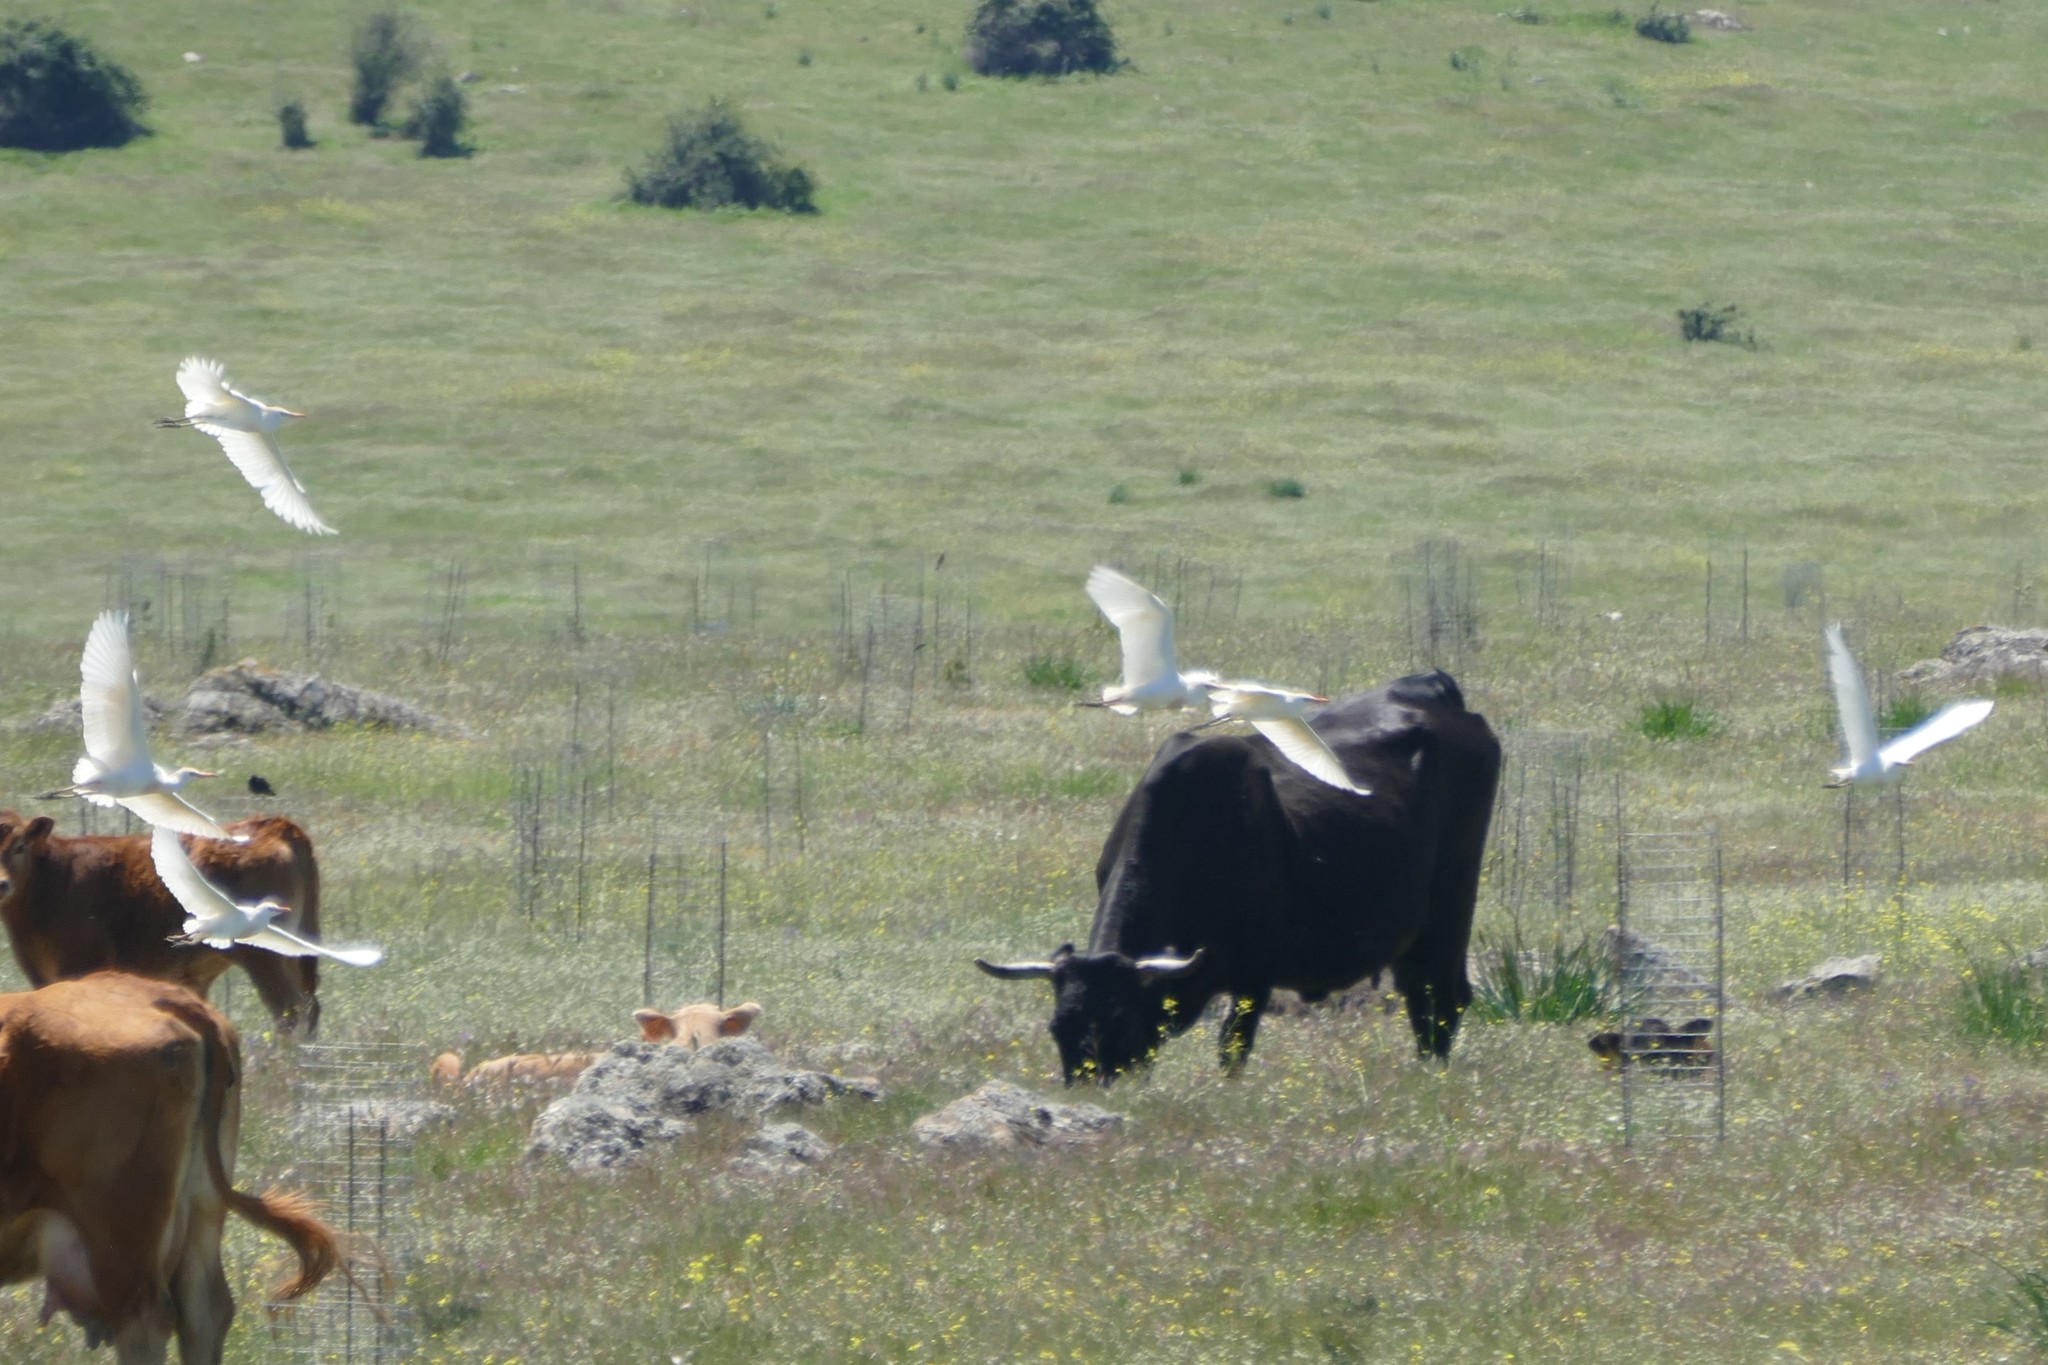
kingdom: Animalia
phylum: Chordata
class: Aves
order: Pelecaniformes
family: Ardeidae
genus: Bubulcus
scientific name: Bubulcus ibis
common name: Cattle egret
